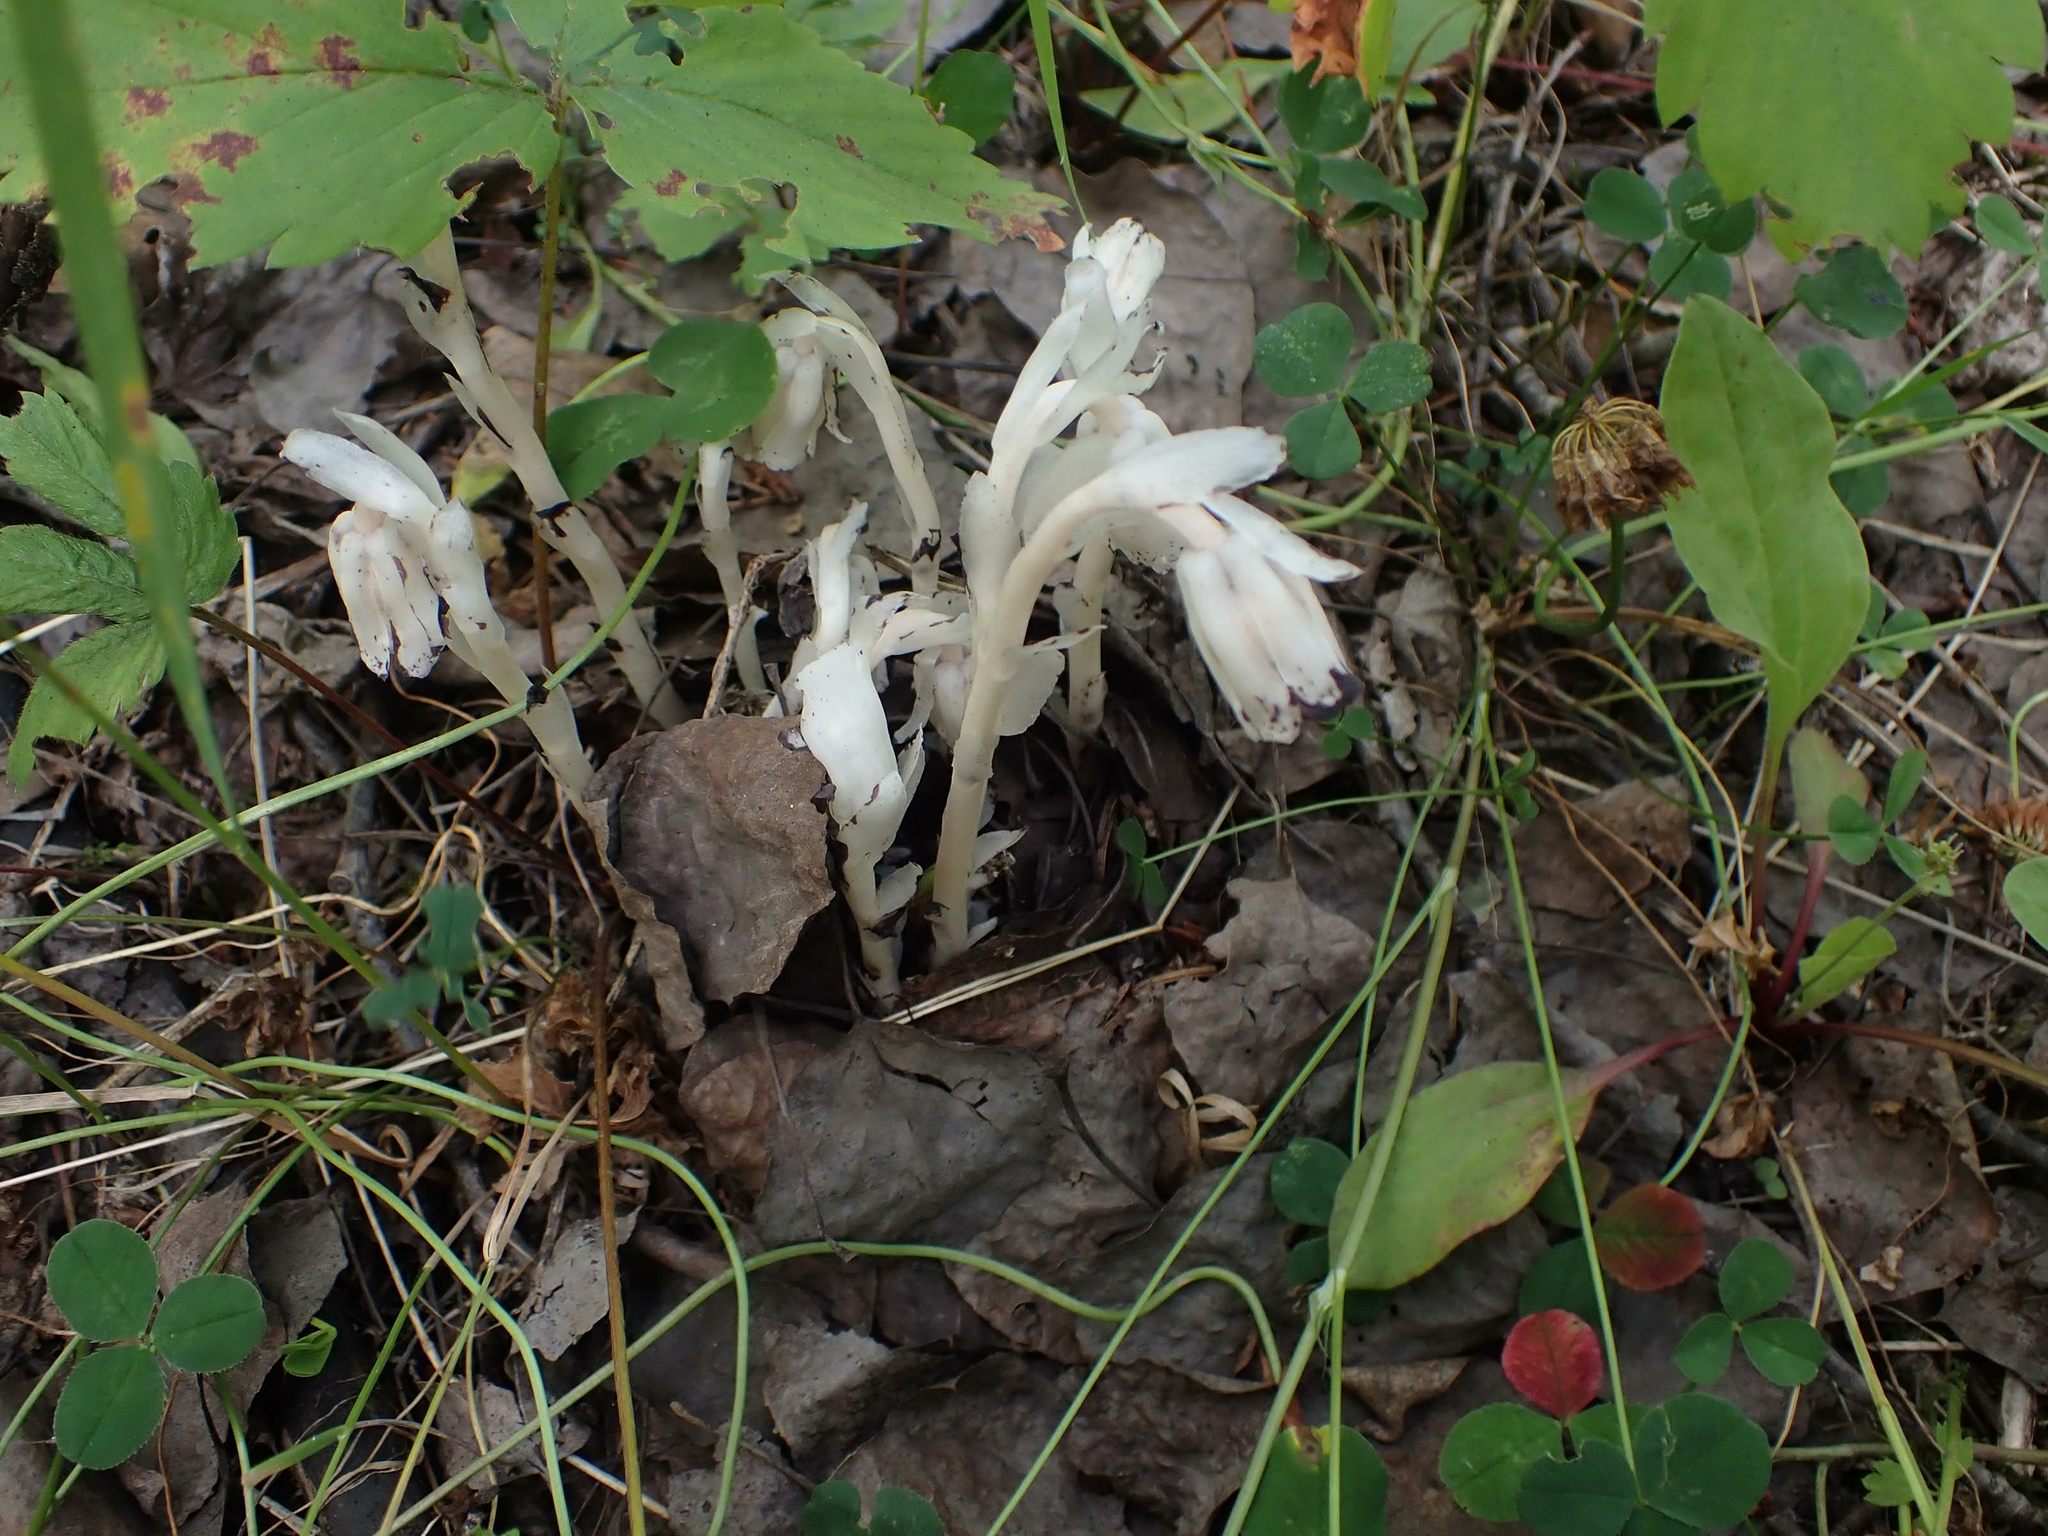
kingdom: Plantae
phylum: Tracheophyta
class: Magnoliopsida
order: Ericales
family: Ericaceae
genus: Monotropa
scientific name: Monotropa uniflora
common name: Convulsion root
